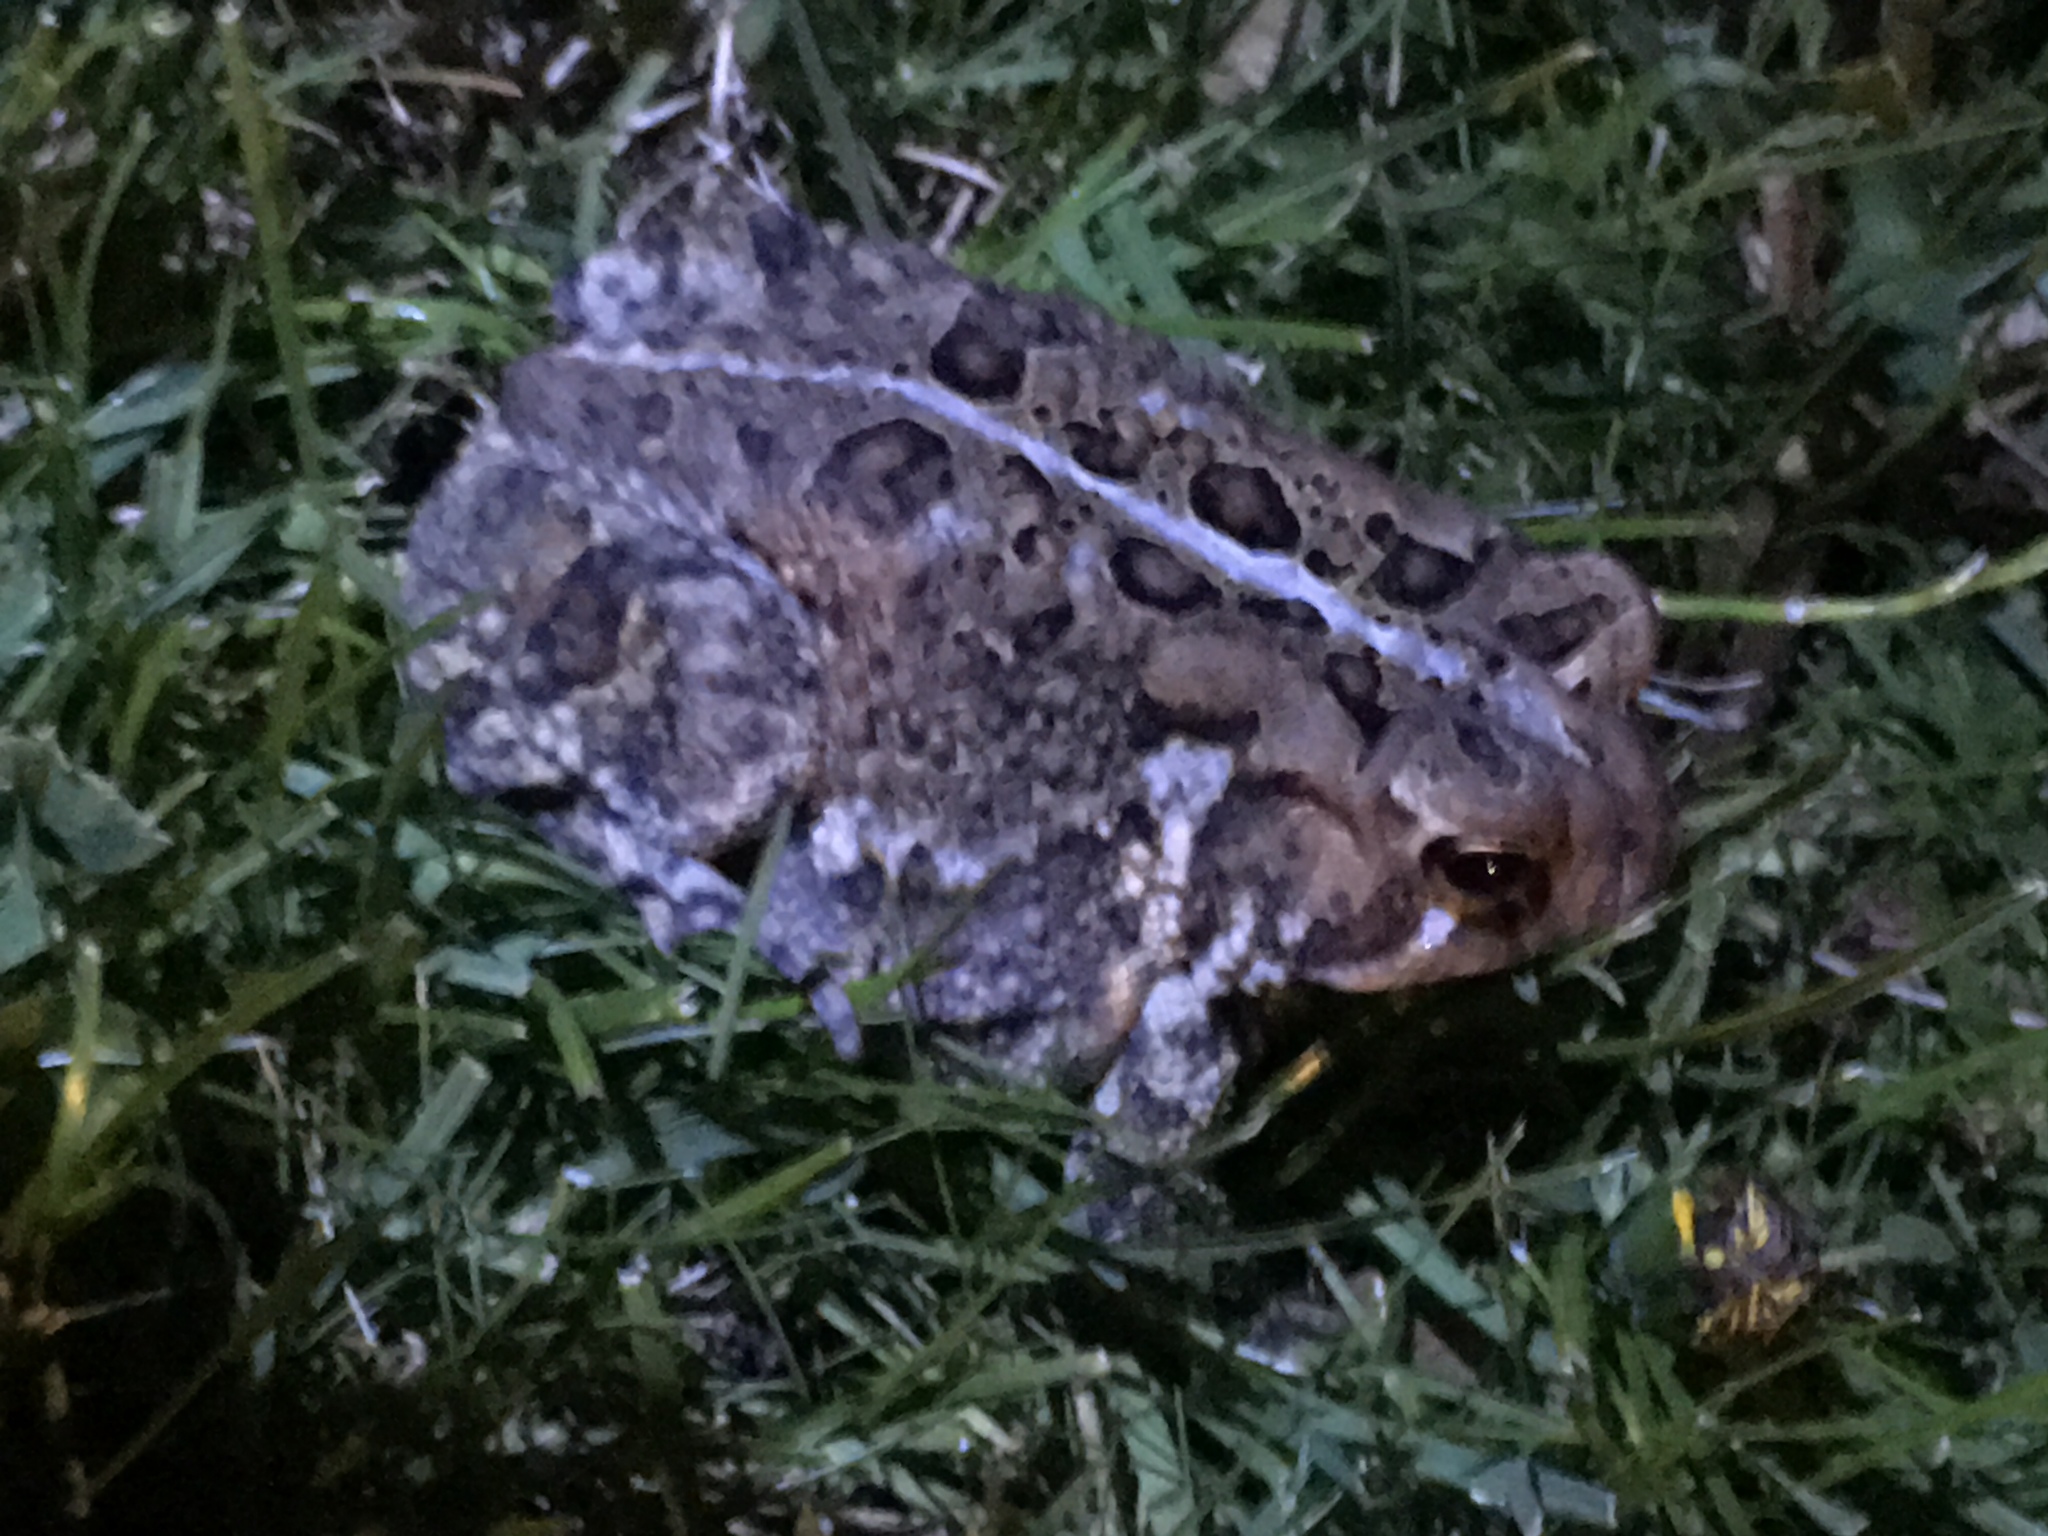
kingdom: Animalia
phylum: Chordata
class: Amphibia
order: Anura
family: Bufonidae
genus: Anaxyrus
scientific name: Anaxyrus americanus
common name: American toad
